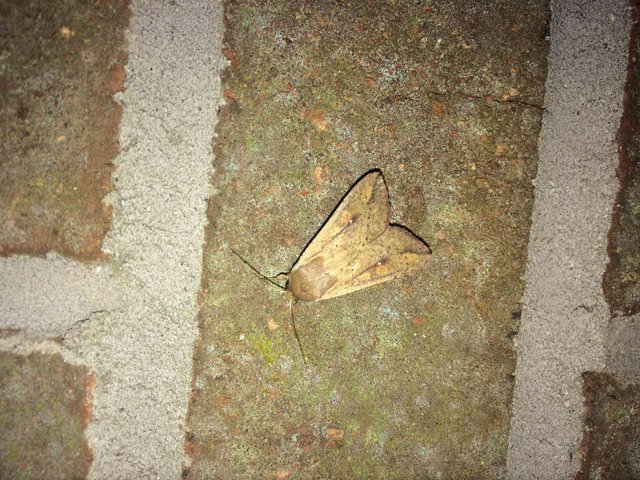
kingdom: Animalia
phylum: Arthropoda
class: Insecta
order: Lepidoptera
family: Noctuidae
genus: Mythimna
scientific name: Mythimna unipuncta
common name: White-speck
